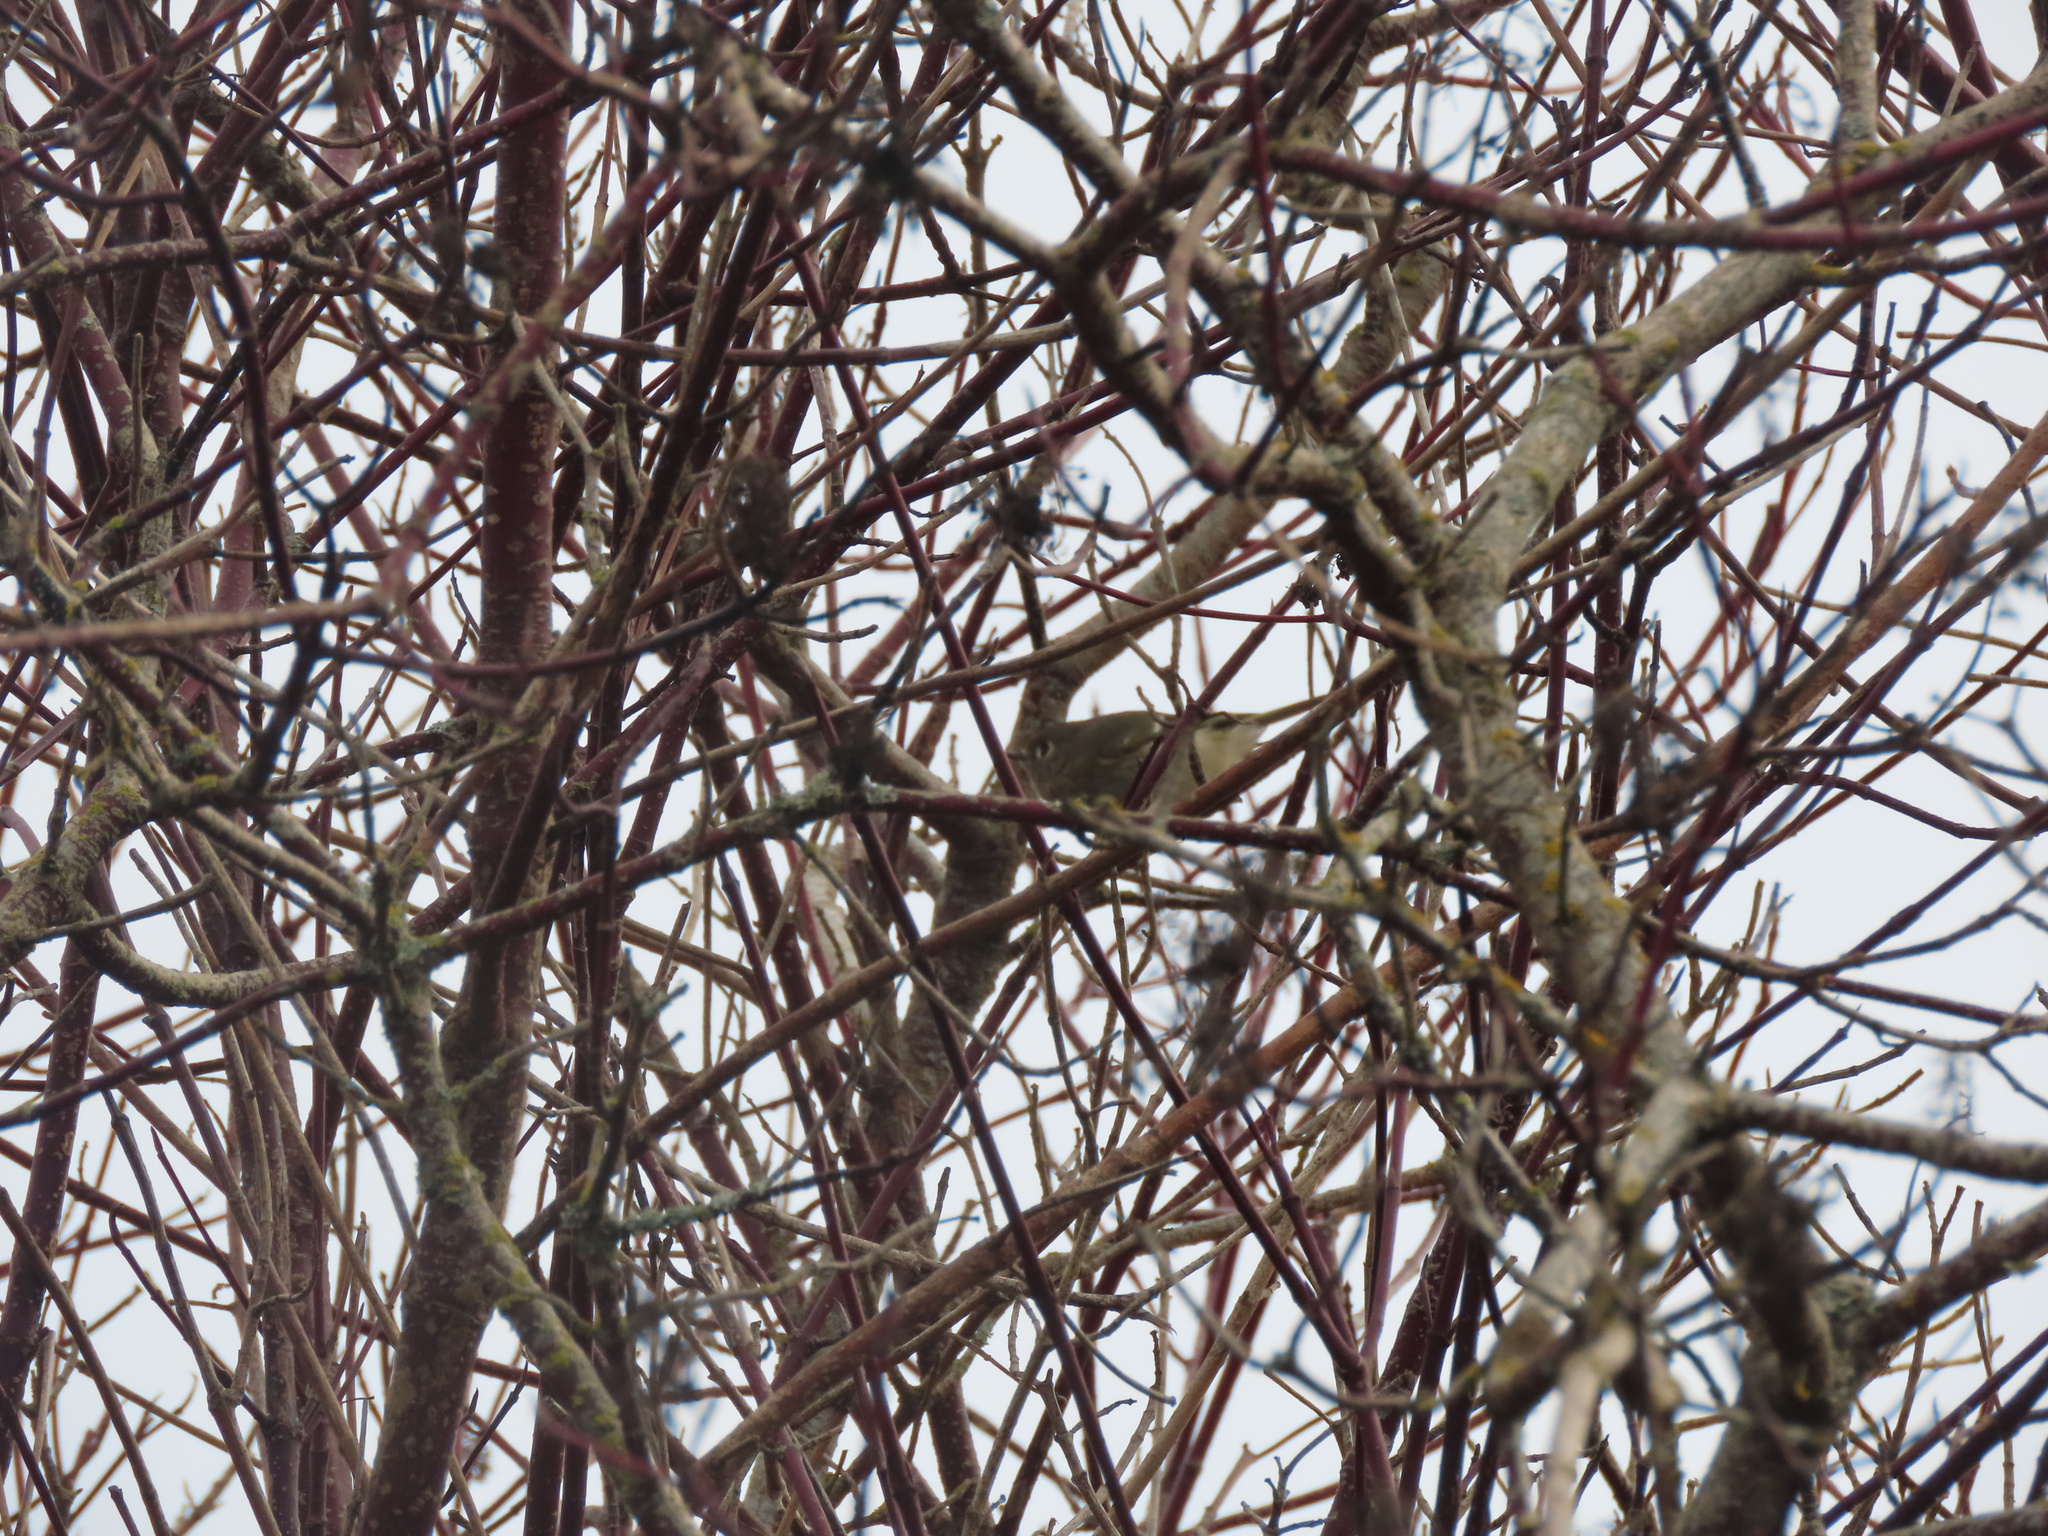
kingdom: Animalia
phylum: Chordata
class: Aves
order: Passeriformes
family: Regulidae
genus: Regulus
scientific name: Regulus calendula
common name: Ruby-crowned kinglet
